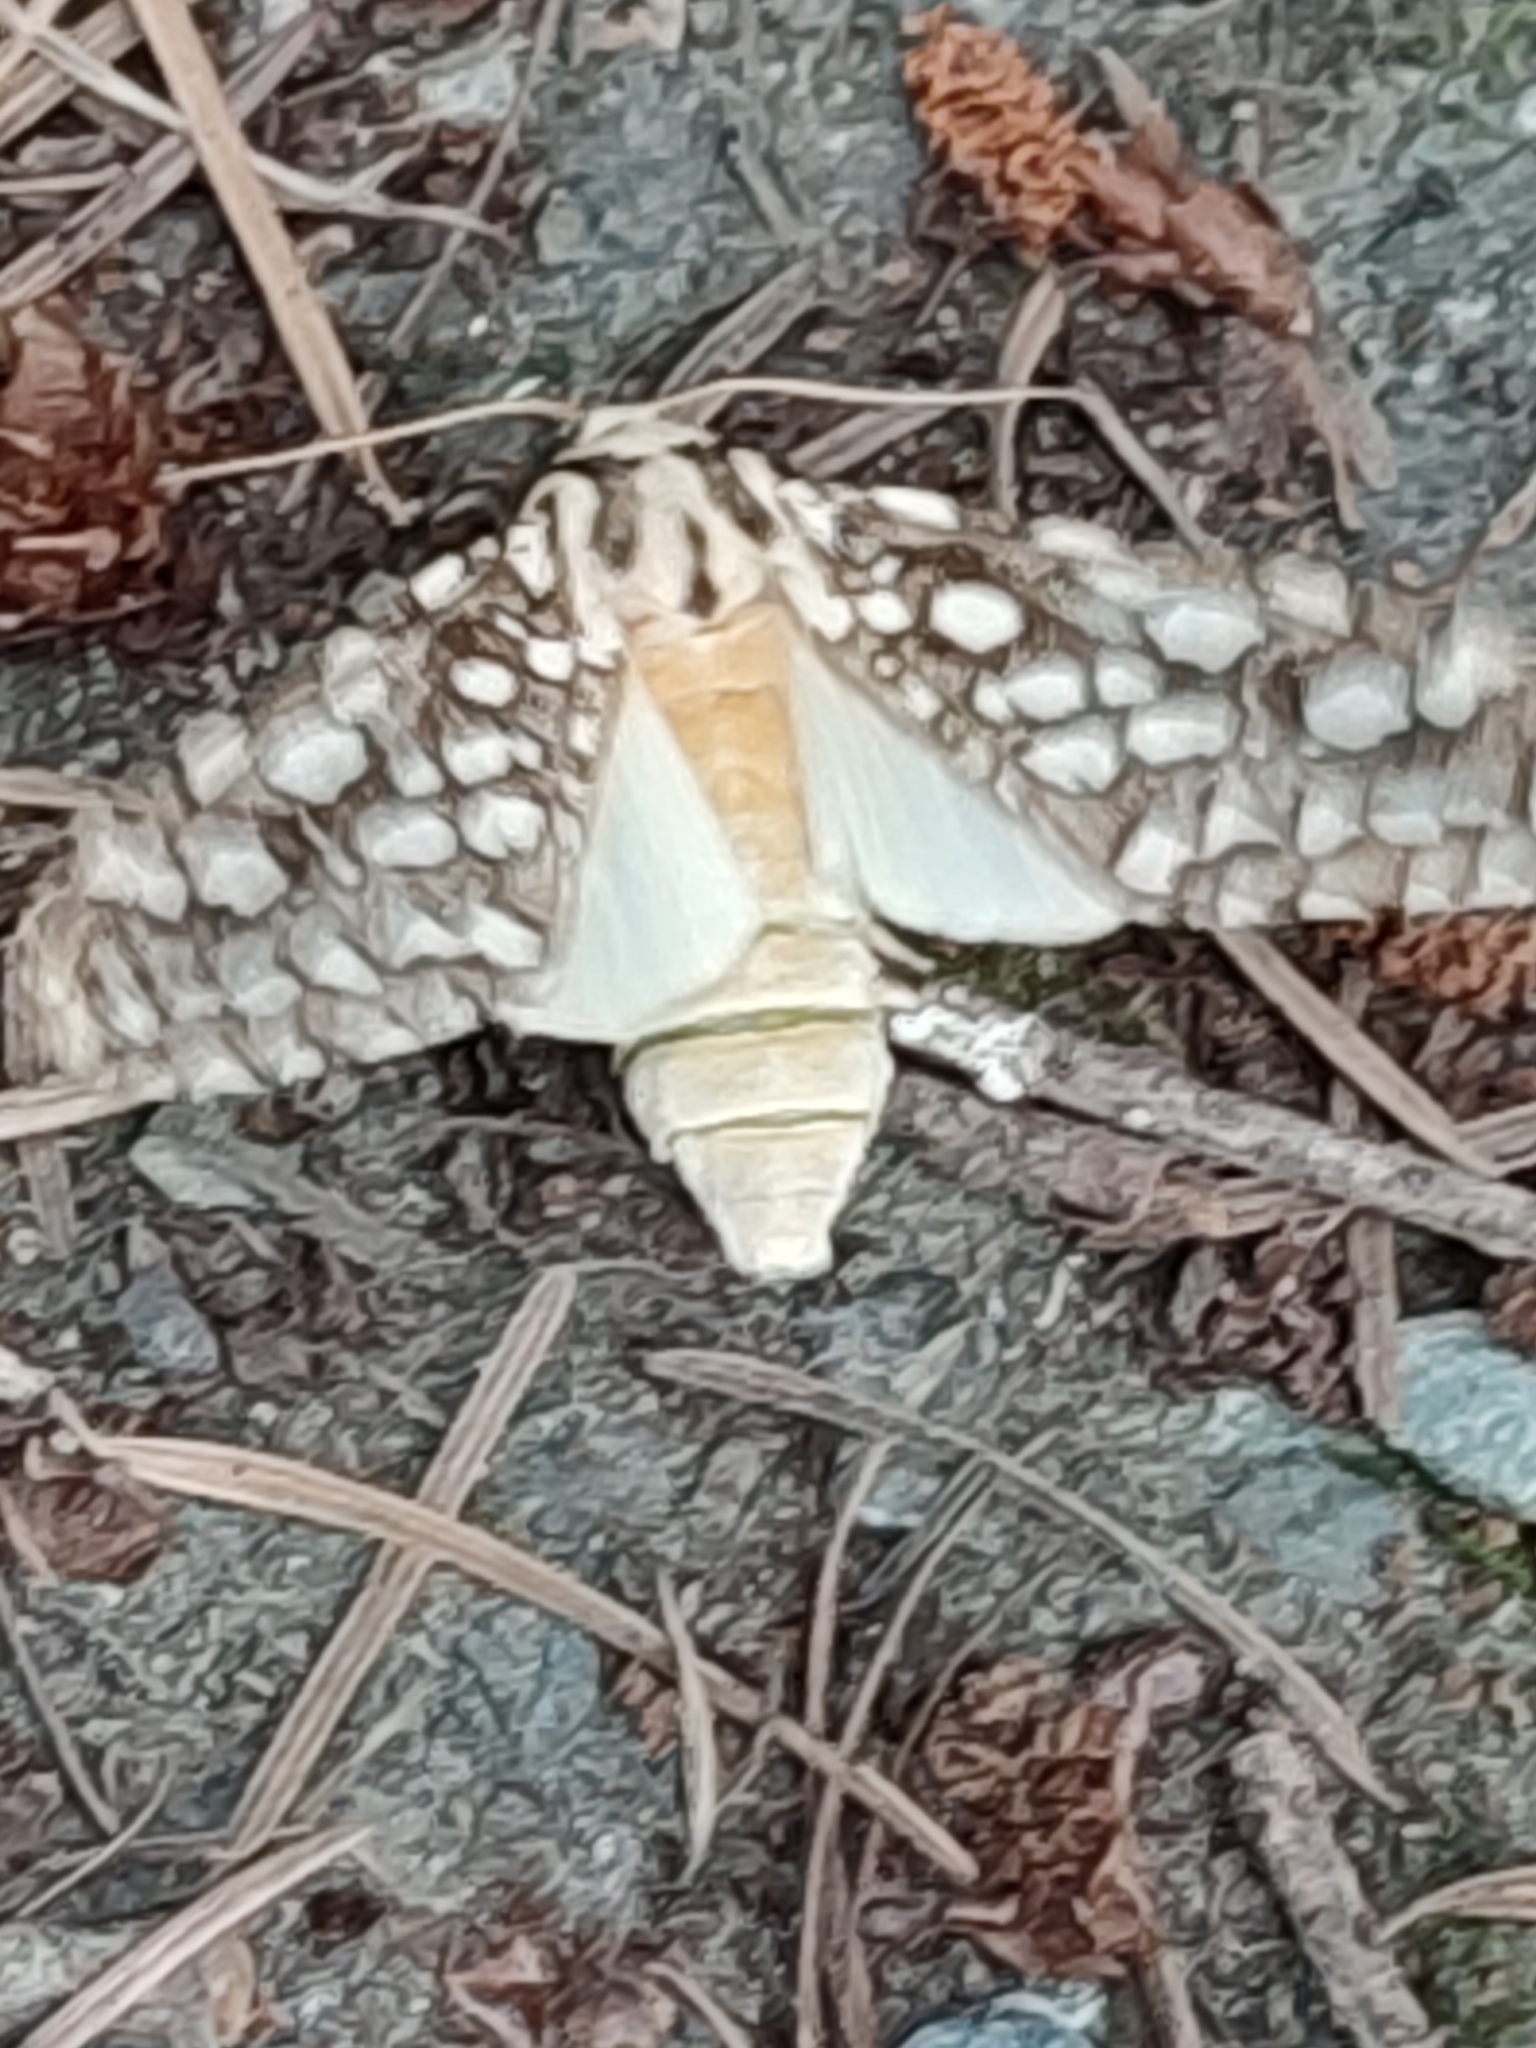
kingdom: Animalia
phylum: Arthropoda
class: Insecta
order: Lepidoptera
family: Erebidae
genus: Lophocampa
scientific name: Lophocampa argentata
